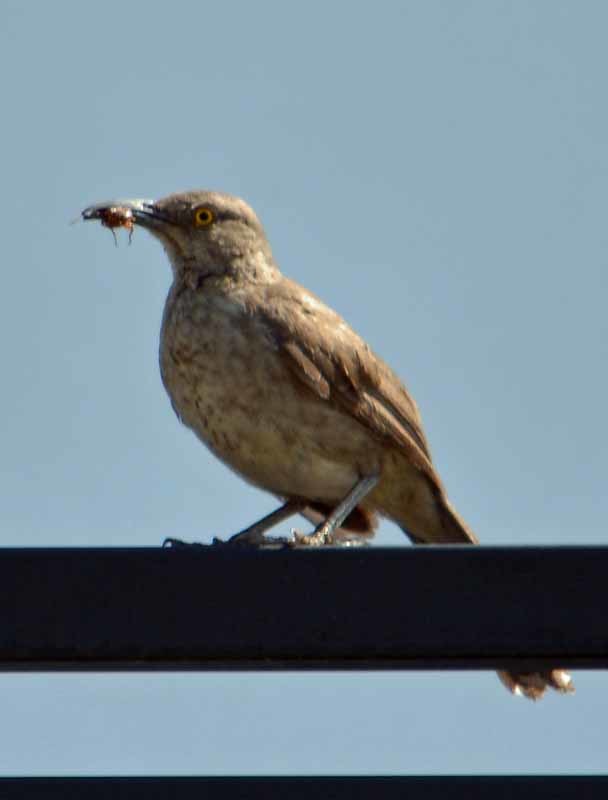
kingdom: Animalia
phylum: Chordata
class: Aves
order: Passeriformes
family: Mimidae
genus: Toxostoma
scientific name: Toxostoma curvirostre
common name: Curve-billed thrasher
